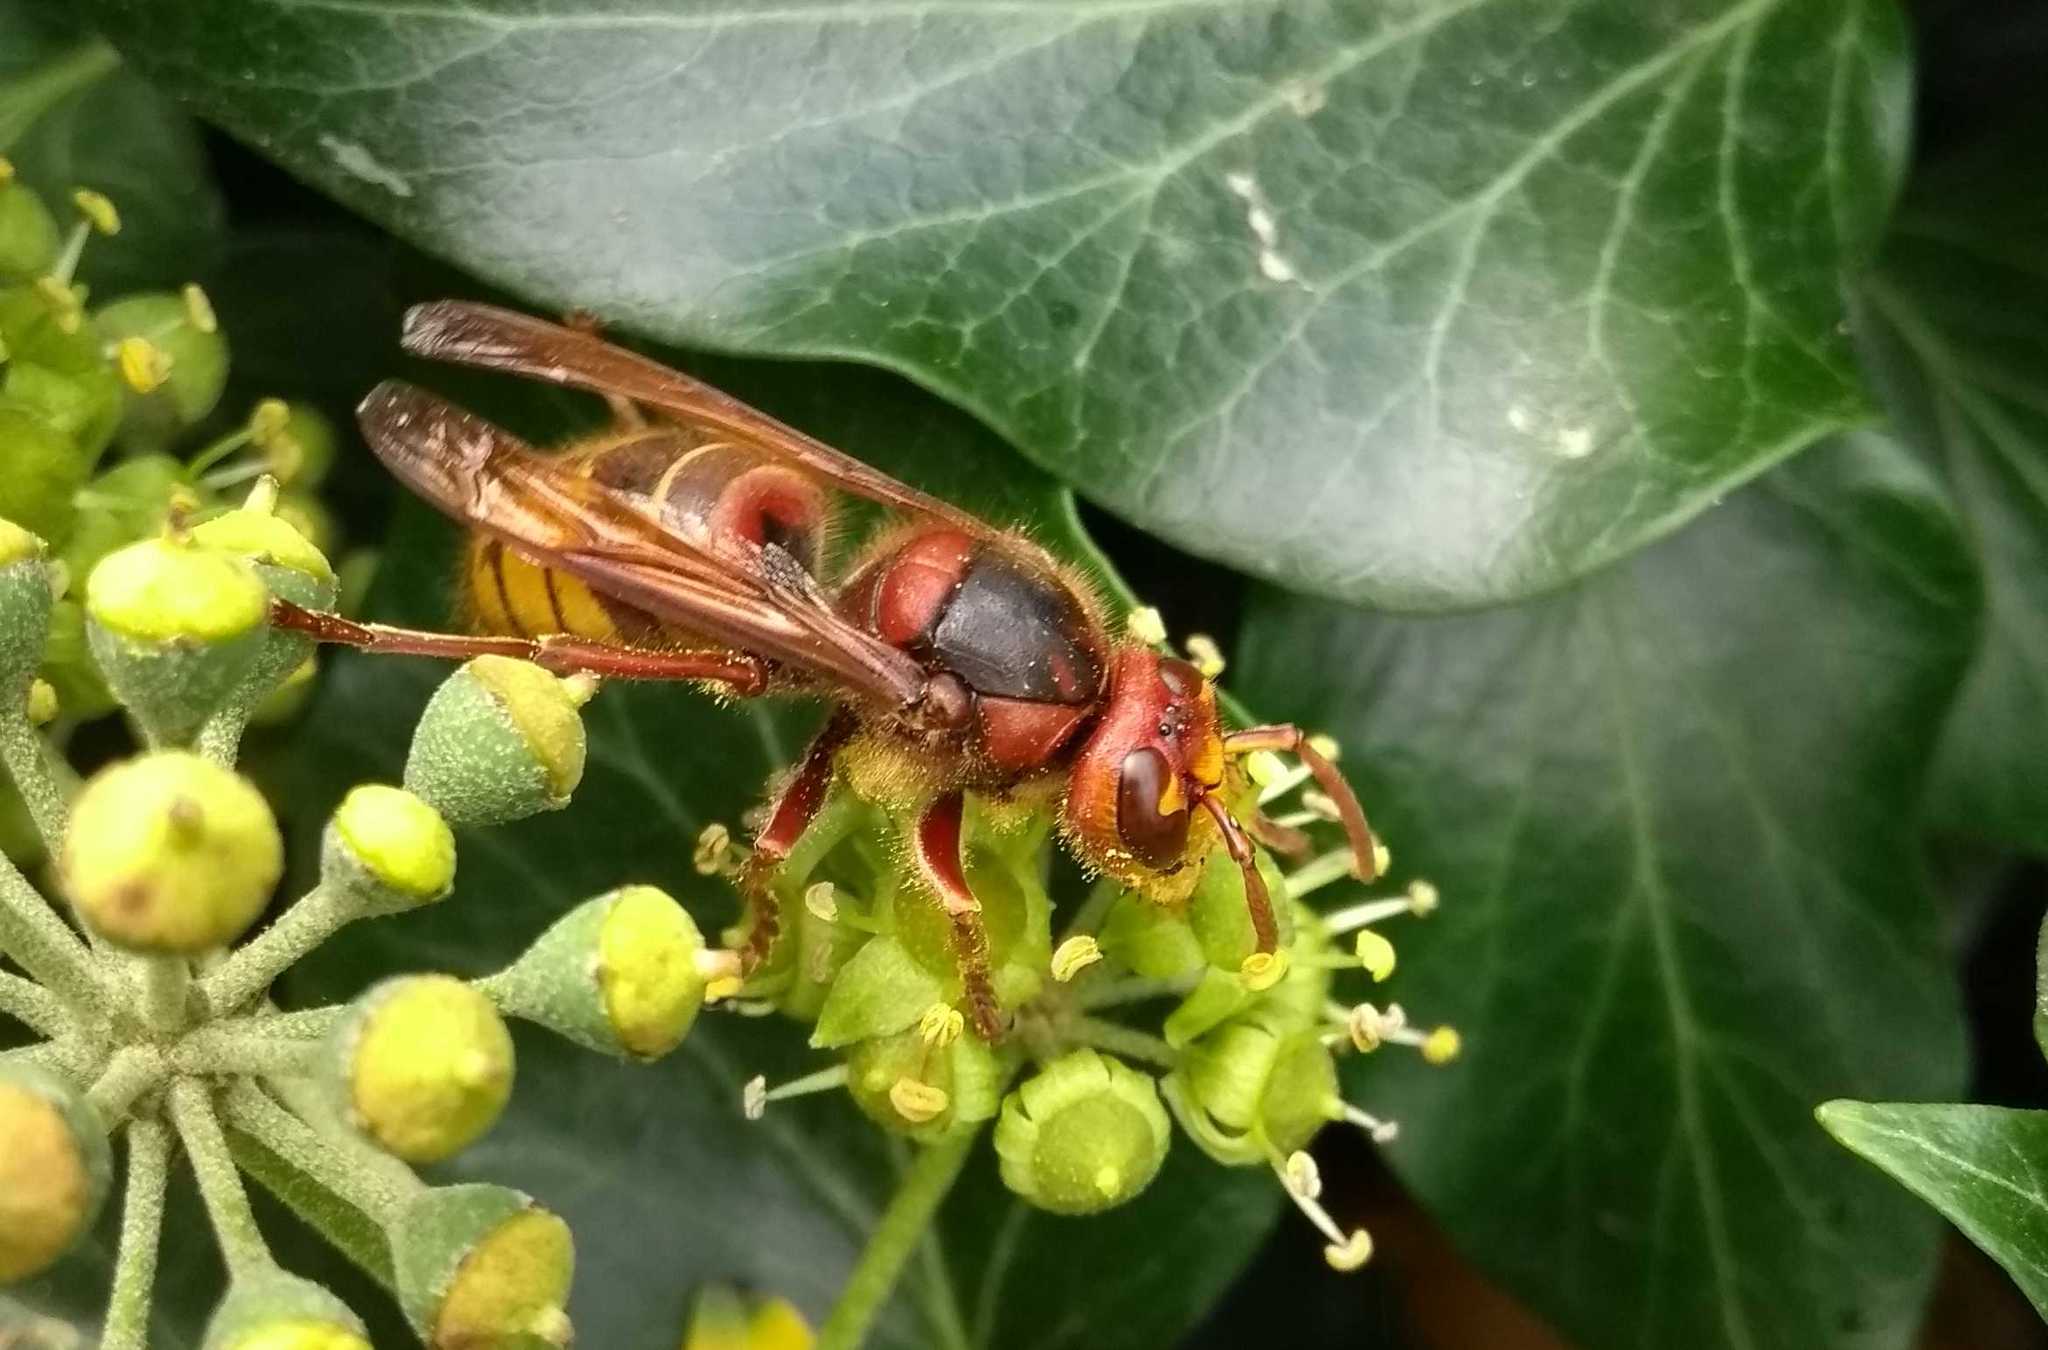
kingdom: Animalia
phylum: Arthropoda
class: Insecta
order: Hymenoptera
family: Vespidae
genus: Vespa
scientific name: Vespa crabro
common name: Hornet
